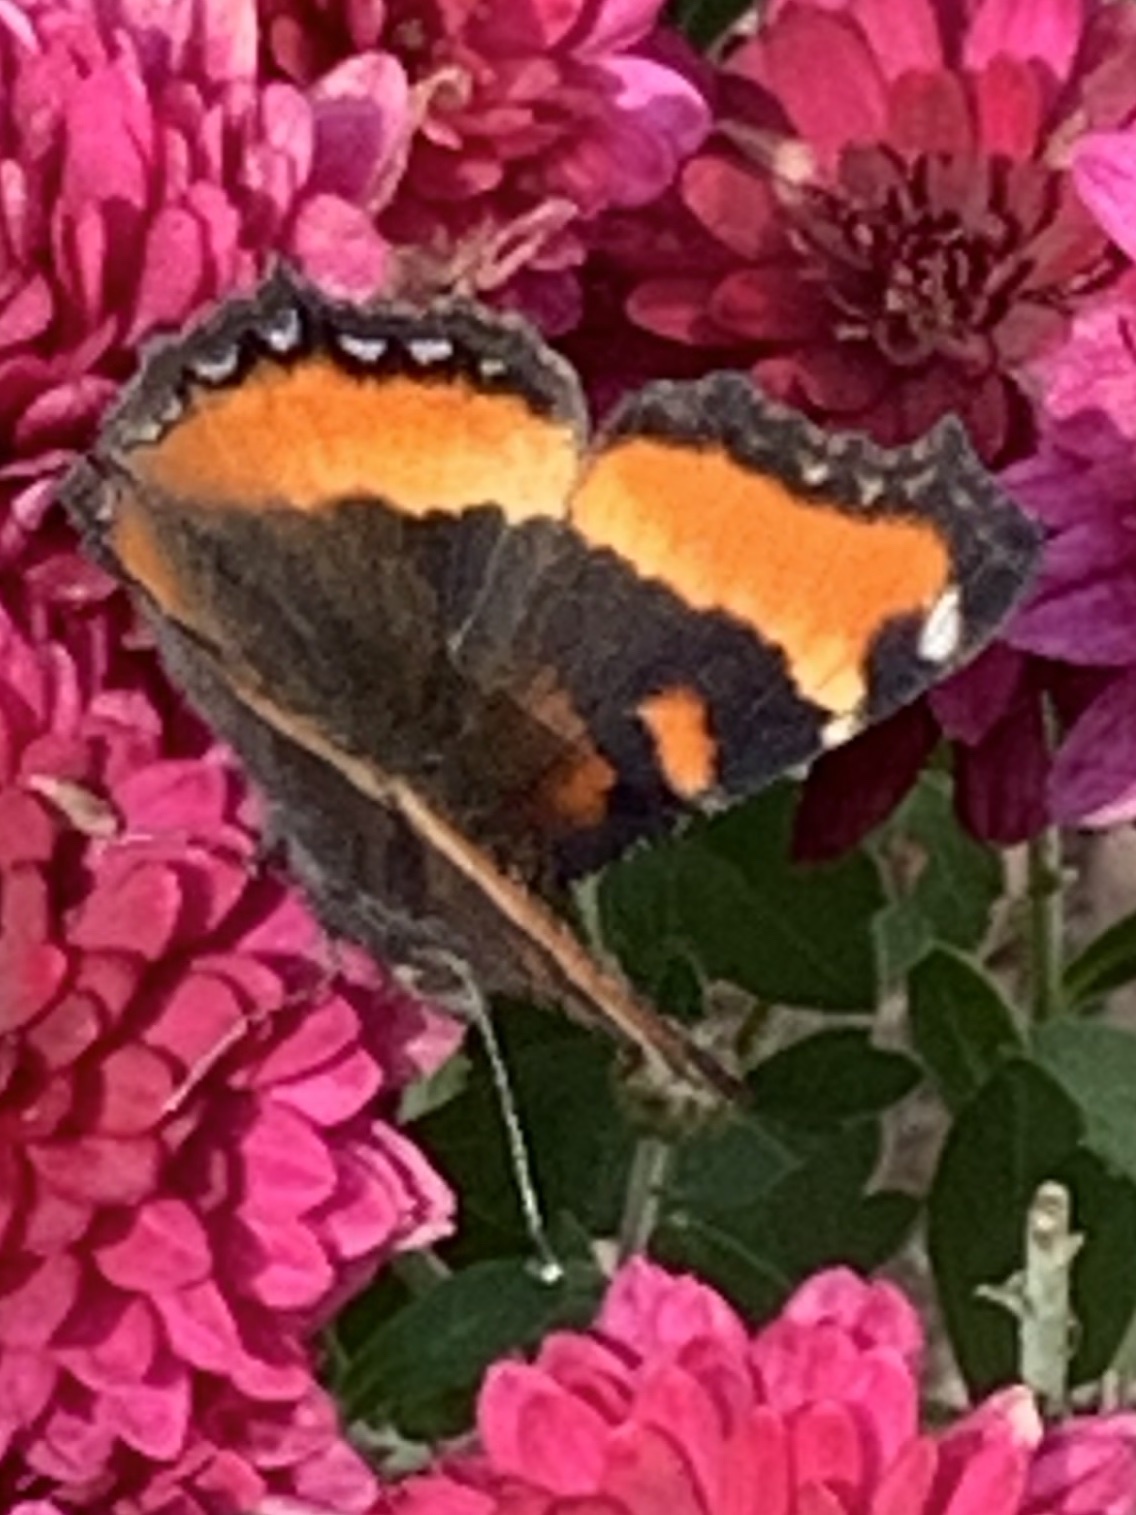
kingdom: Animalia
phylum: Arthropoda
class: Insecta
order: Lepidoptera
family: Nymphalidae
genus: Aglais
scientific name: Aglais milberti
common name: Milbert's tortoiseshell
